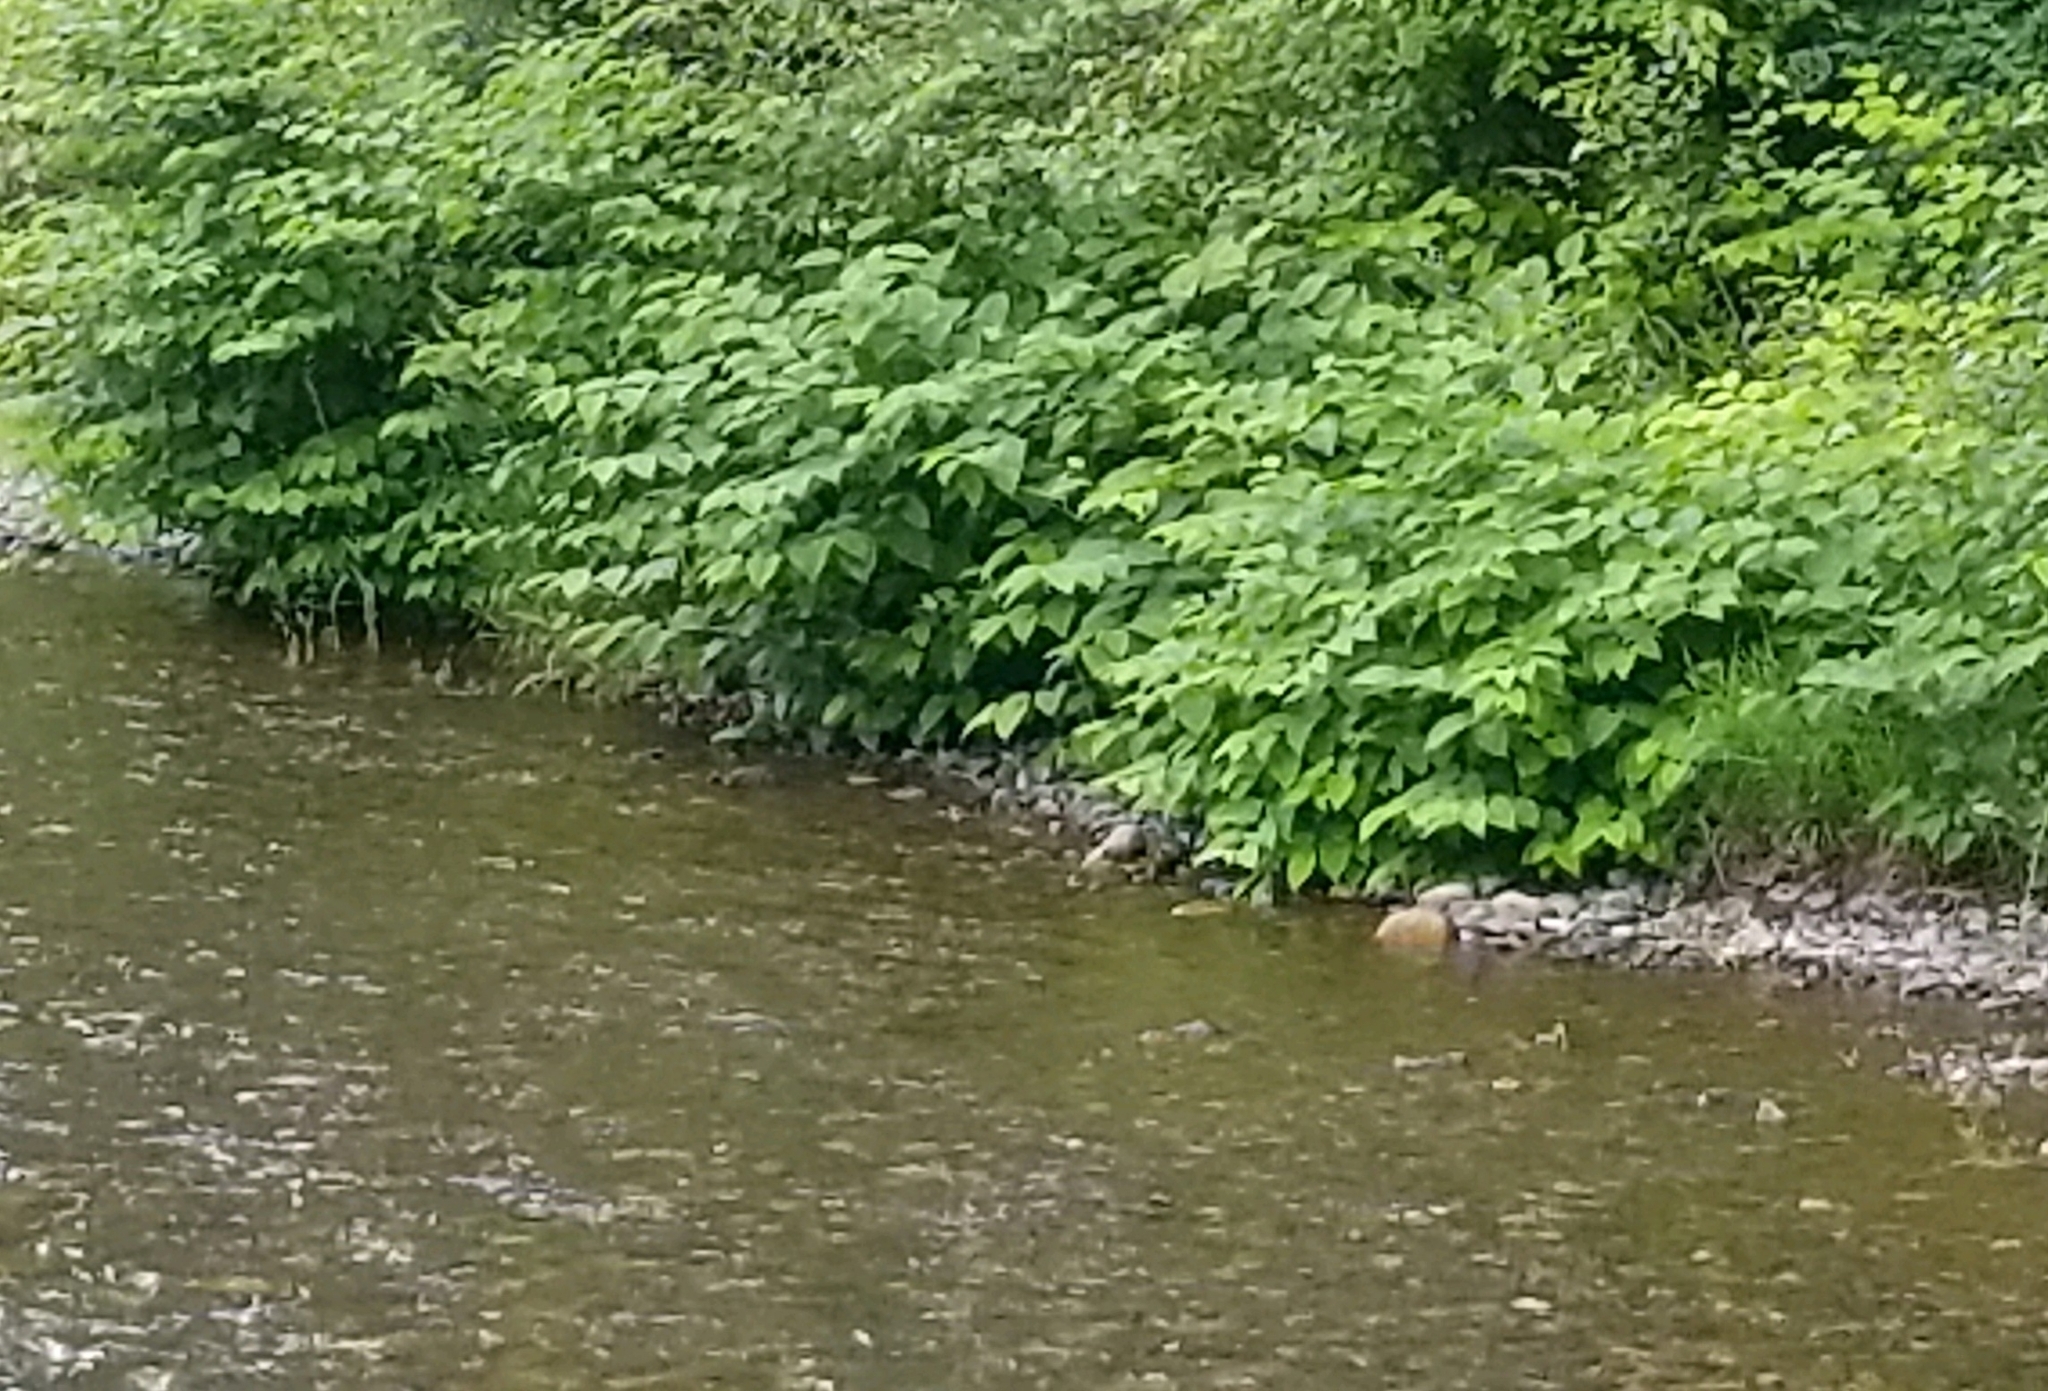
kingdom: Plantae
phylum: Tracheophyta
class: Magnoliopsida
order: Caryophyllales
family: Polygonaceae
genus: Reynoutria
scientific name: Reynoutria bohemica
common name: Bohemian knotweed
